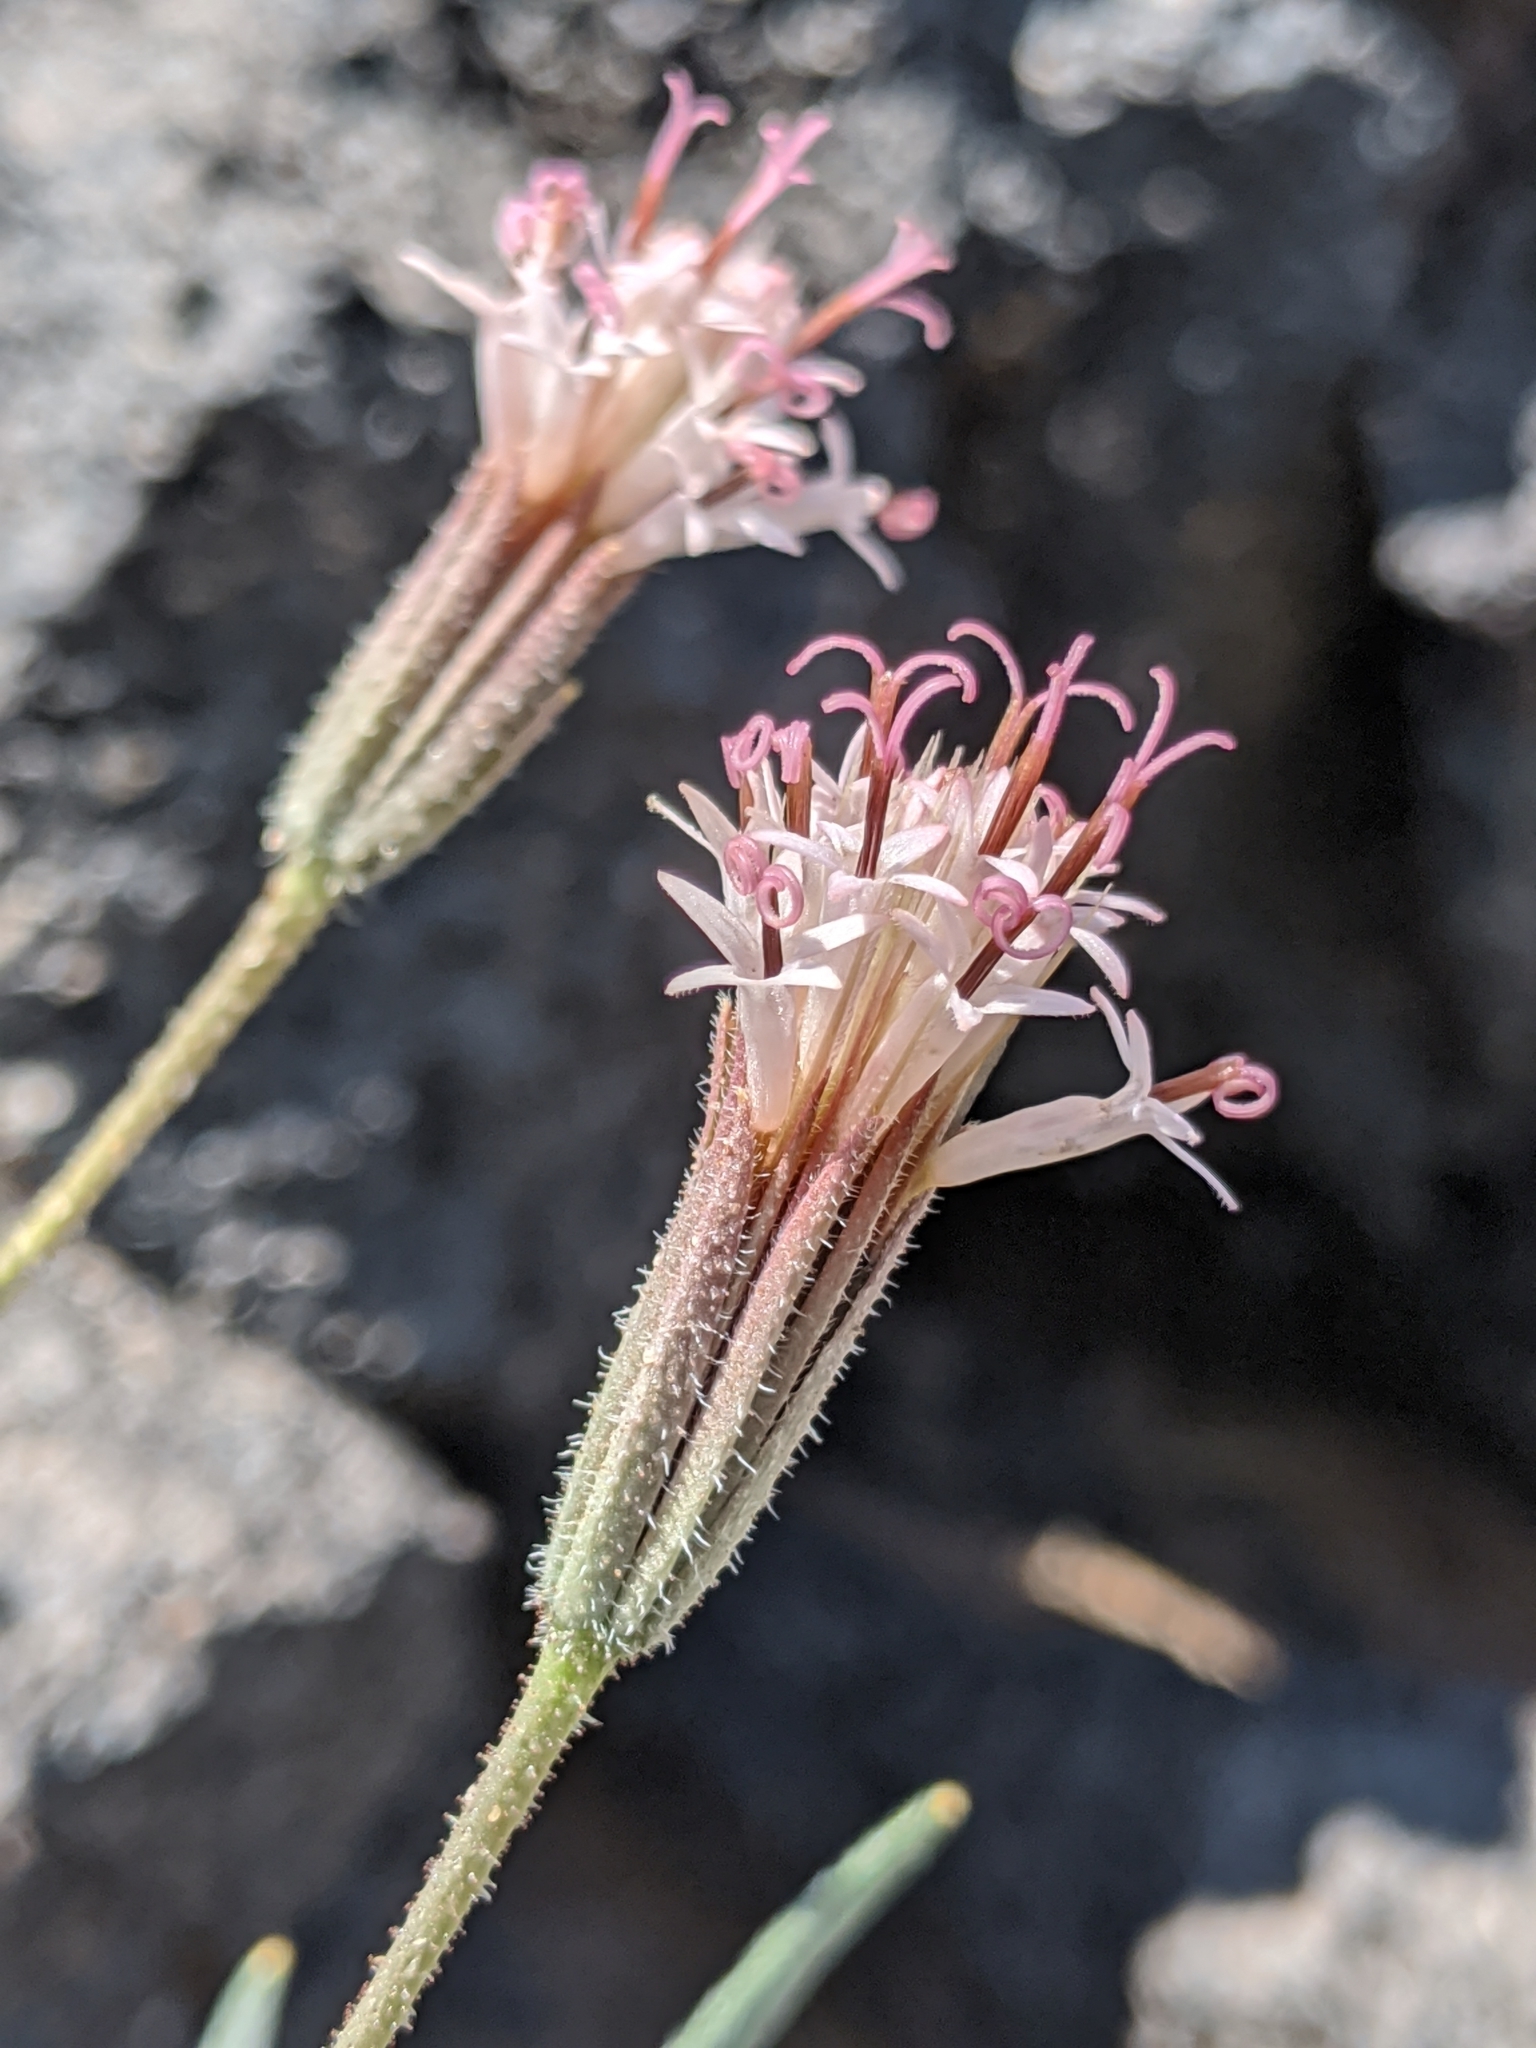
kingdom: Plantae
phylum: Tracheophyta
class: Magnoliopsida
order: Asterales
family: Asteraceae
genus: Palafoxia
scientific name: Palafoxia arida
